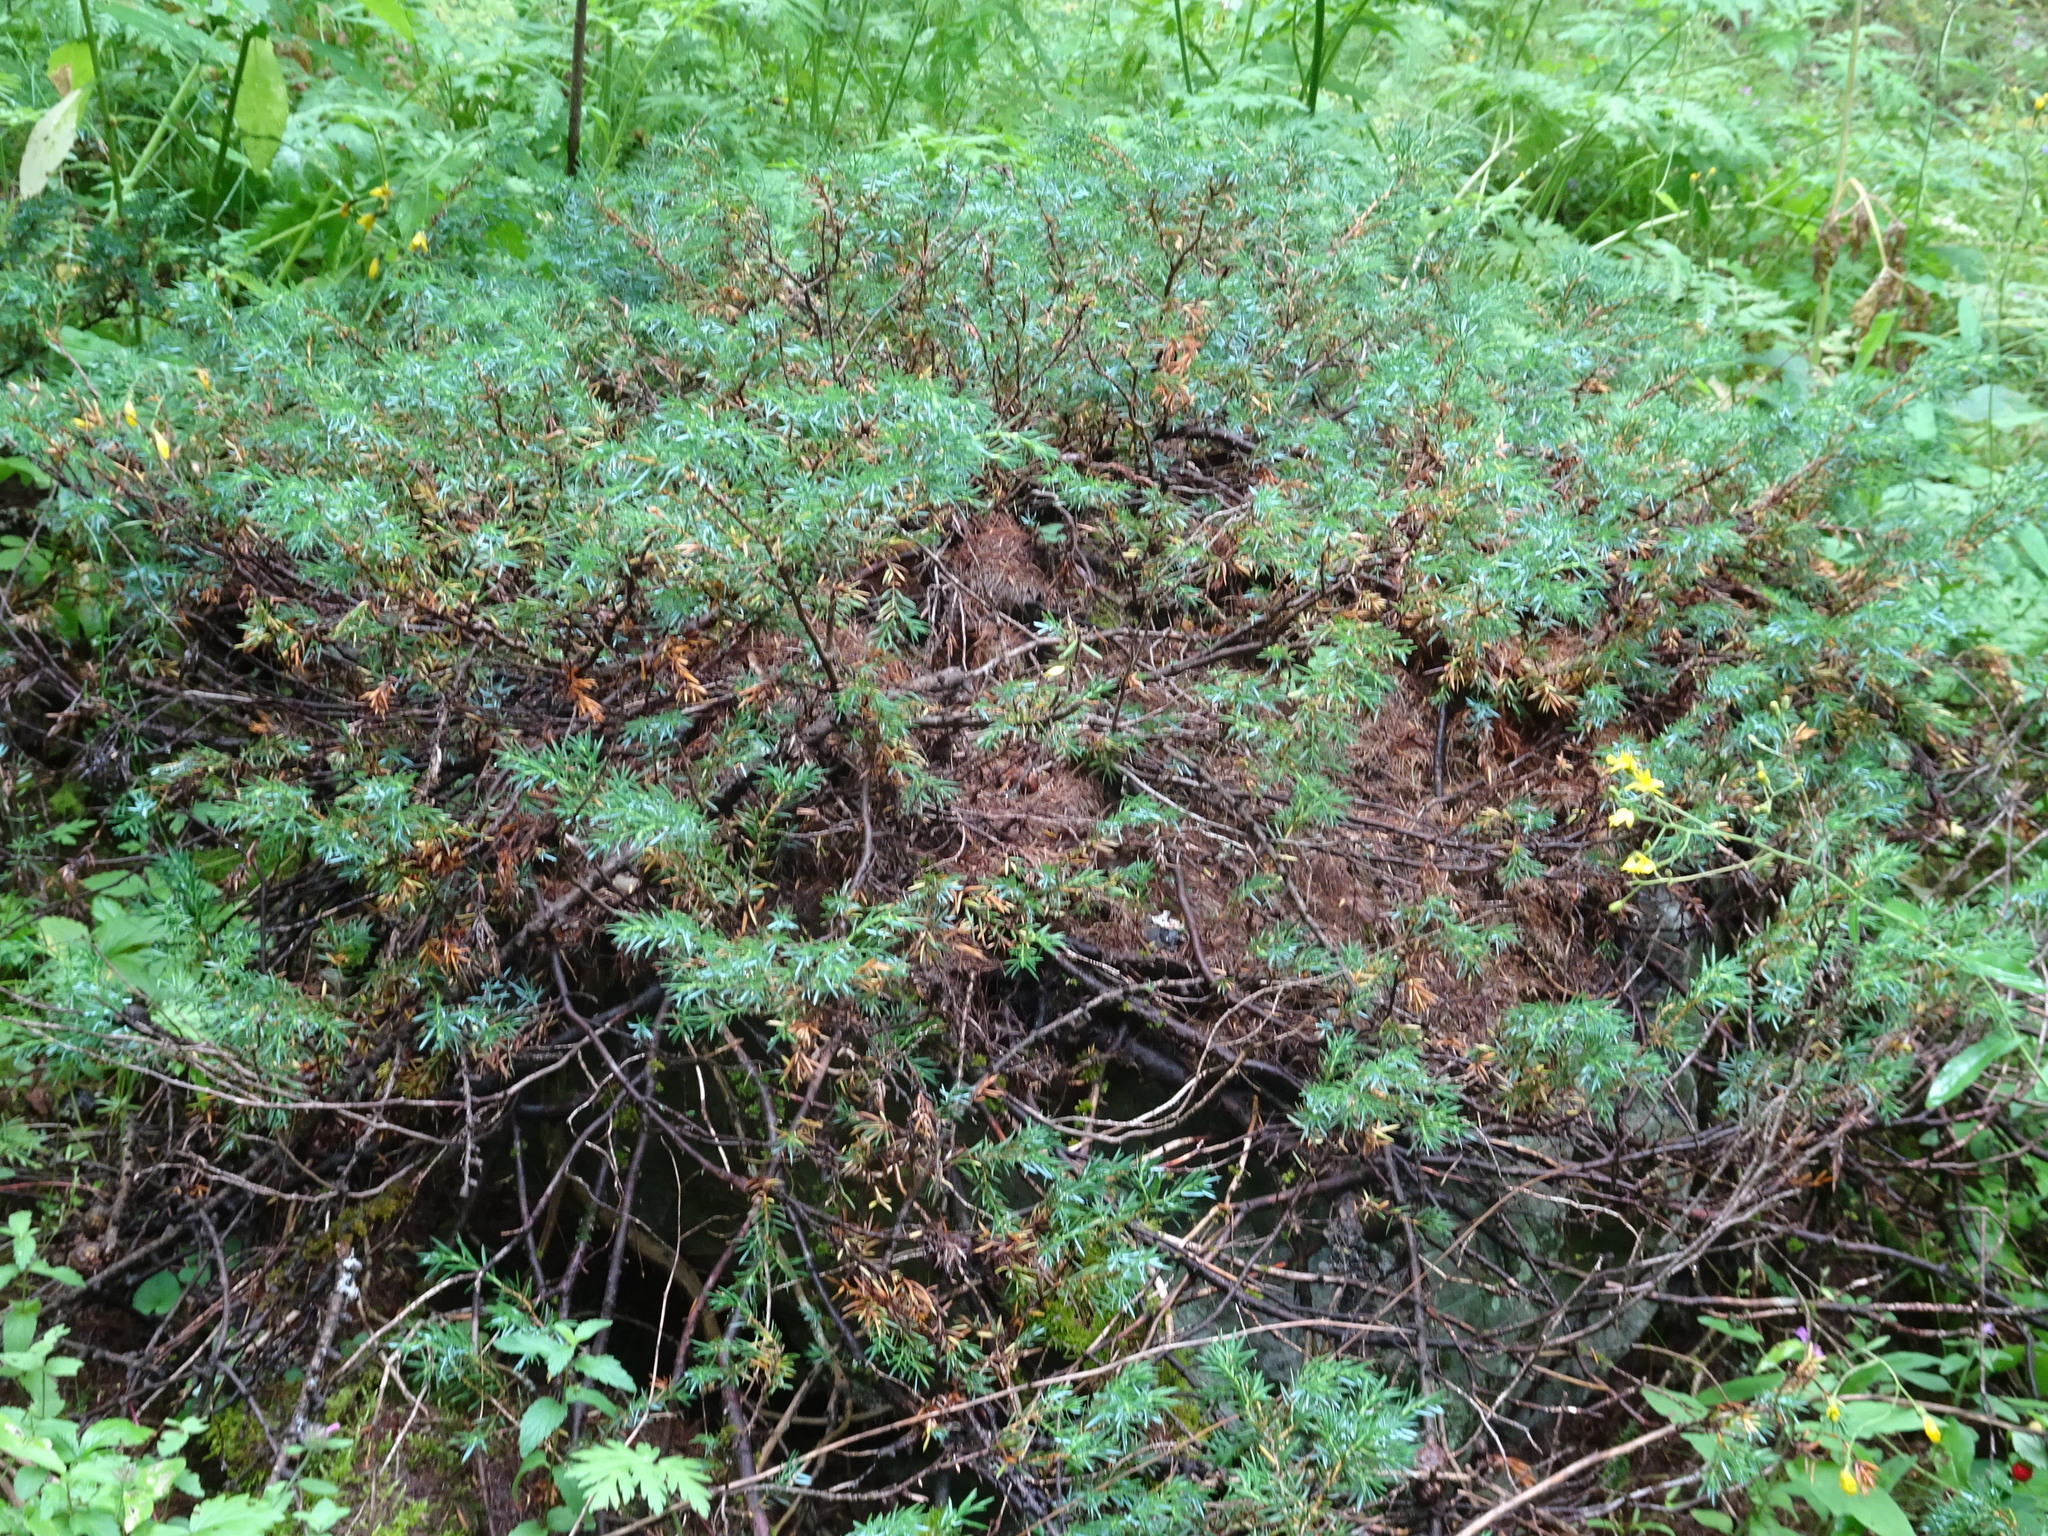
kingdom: Plantae
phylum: Tracheophyta
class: Pinopsida
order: Pinales
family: Cupressaceae
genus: Juniperus
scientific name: Juniperus communis
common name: Common juniper
